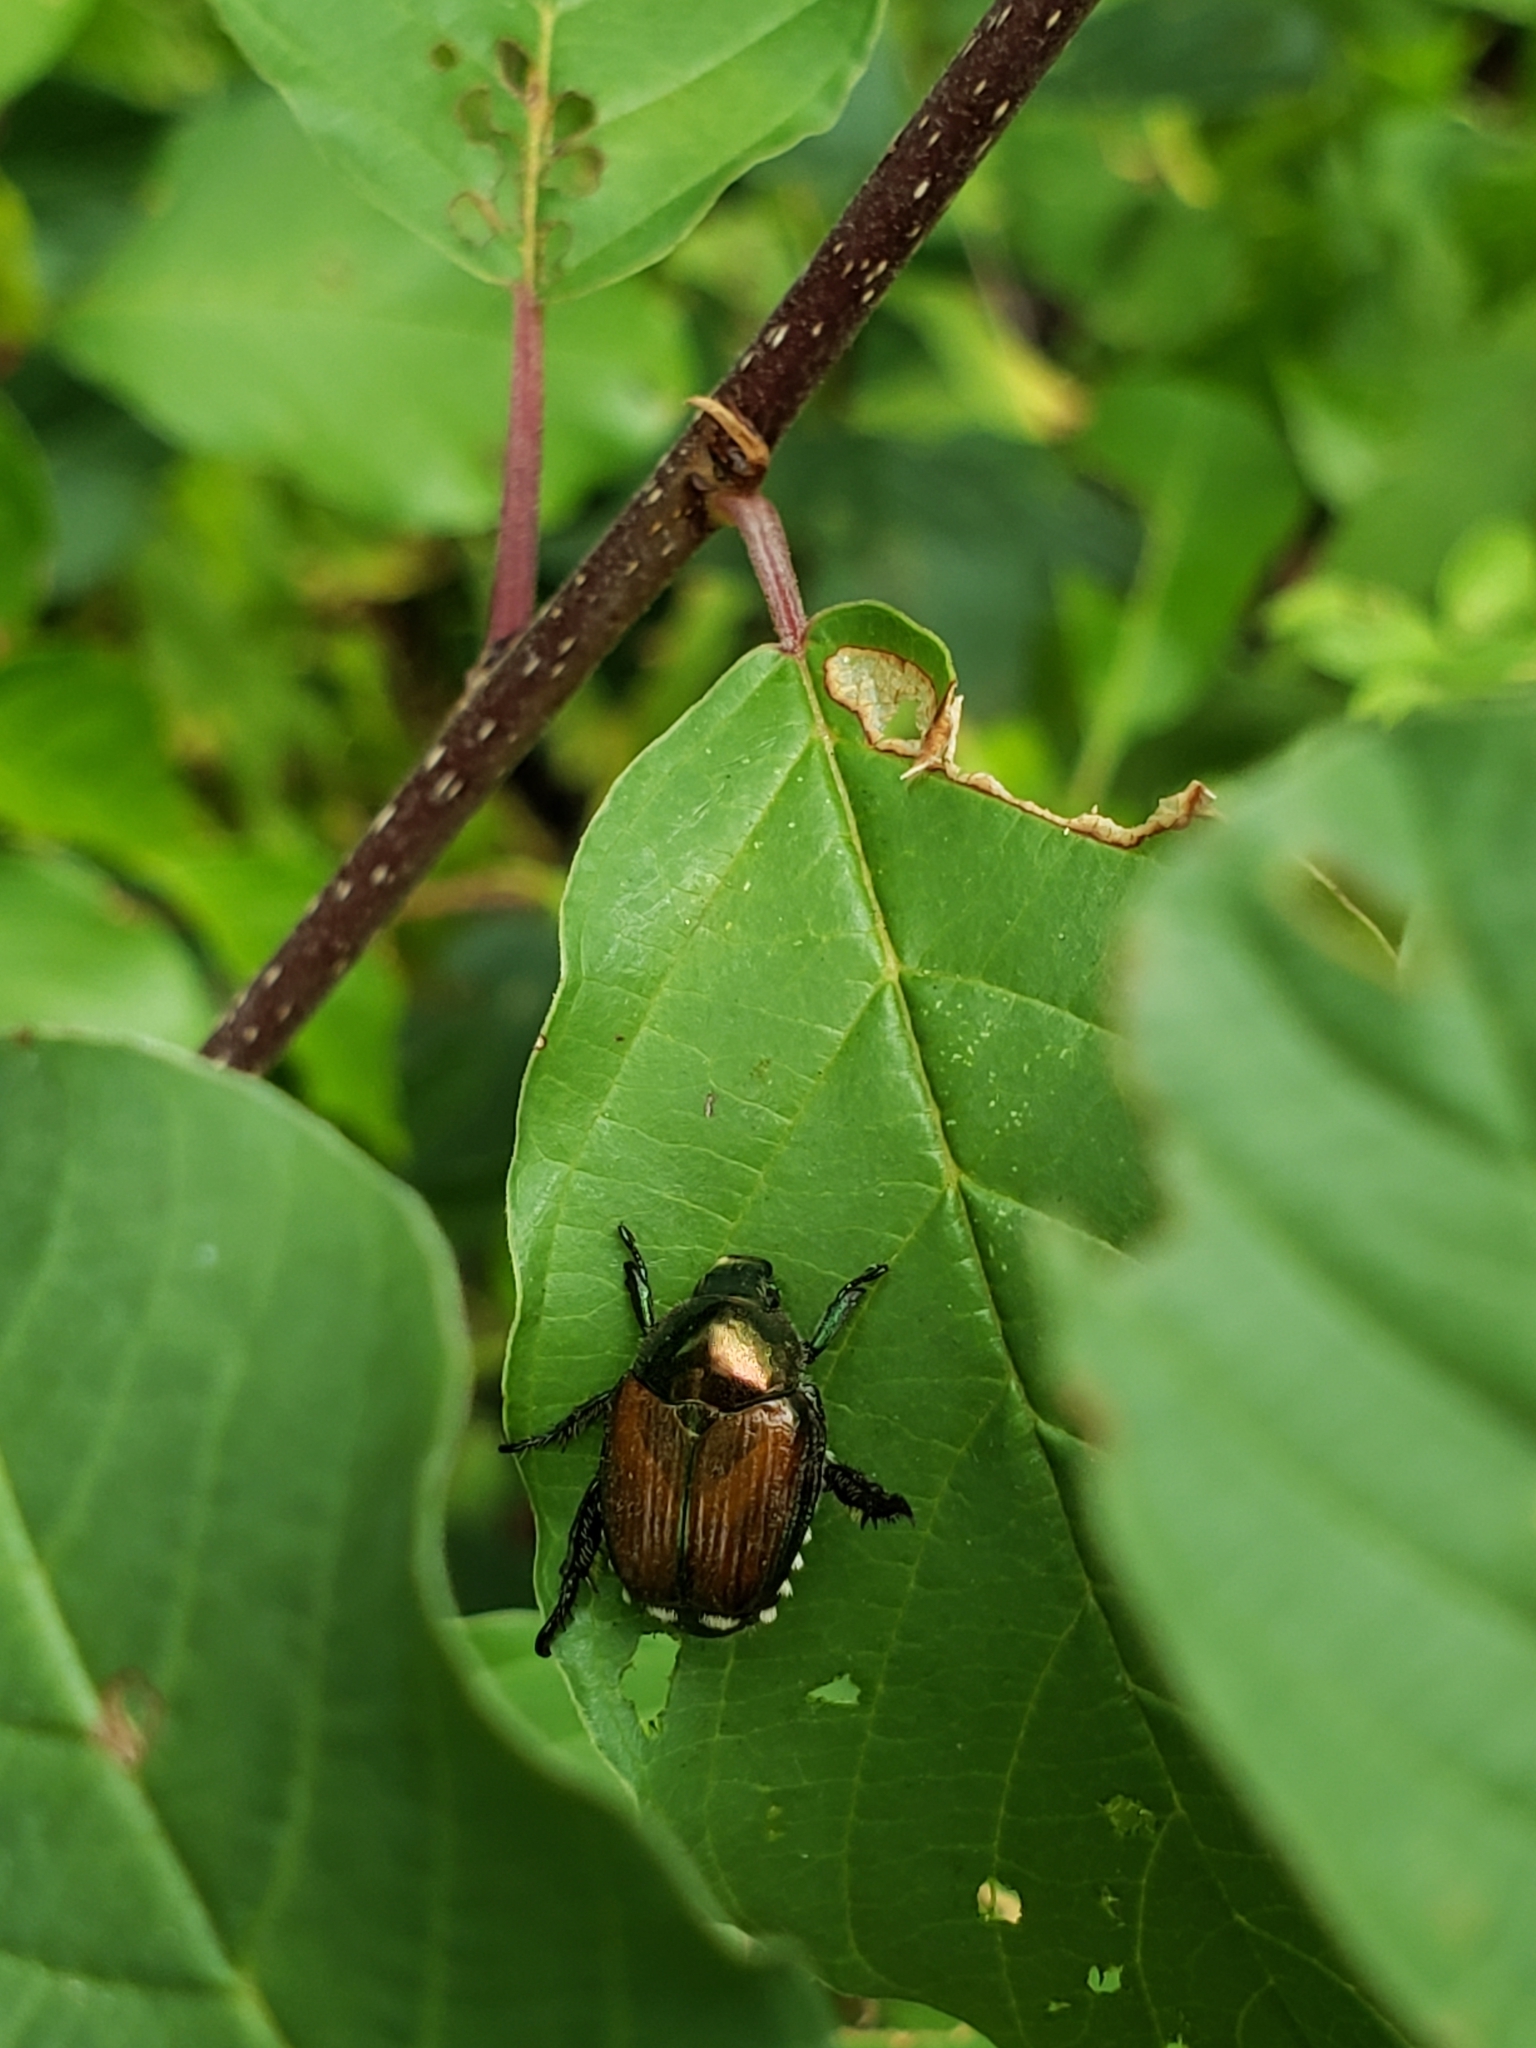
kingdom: Animalia
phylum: Arthropoda
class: Insecta
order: Coleoptera
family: Scarabaeidae
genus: Popillia
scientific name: Popillia japonica
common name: Japanese beetle
